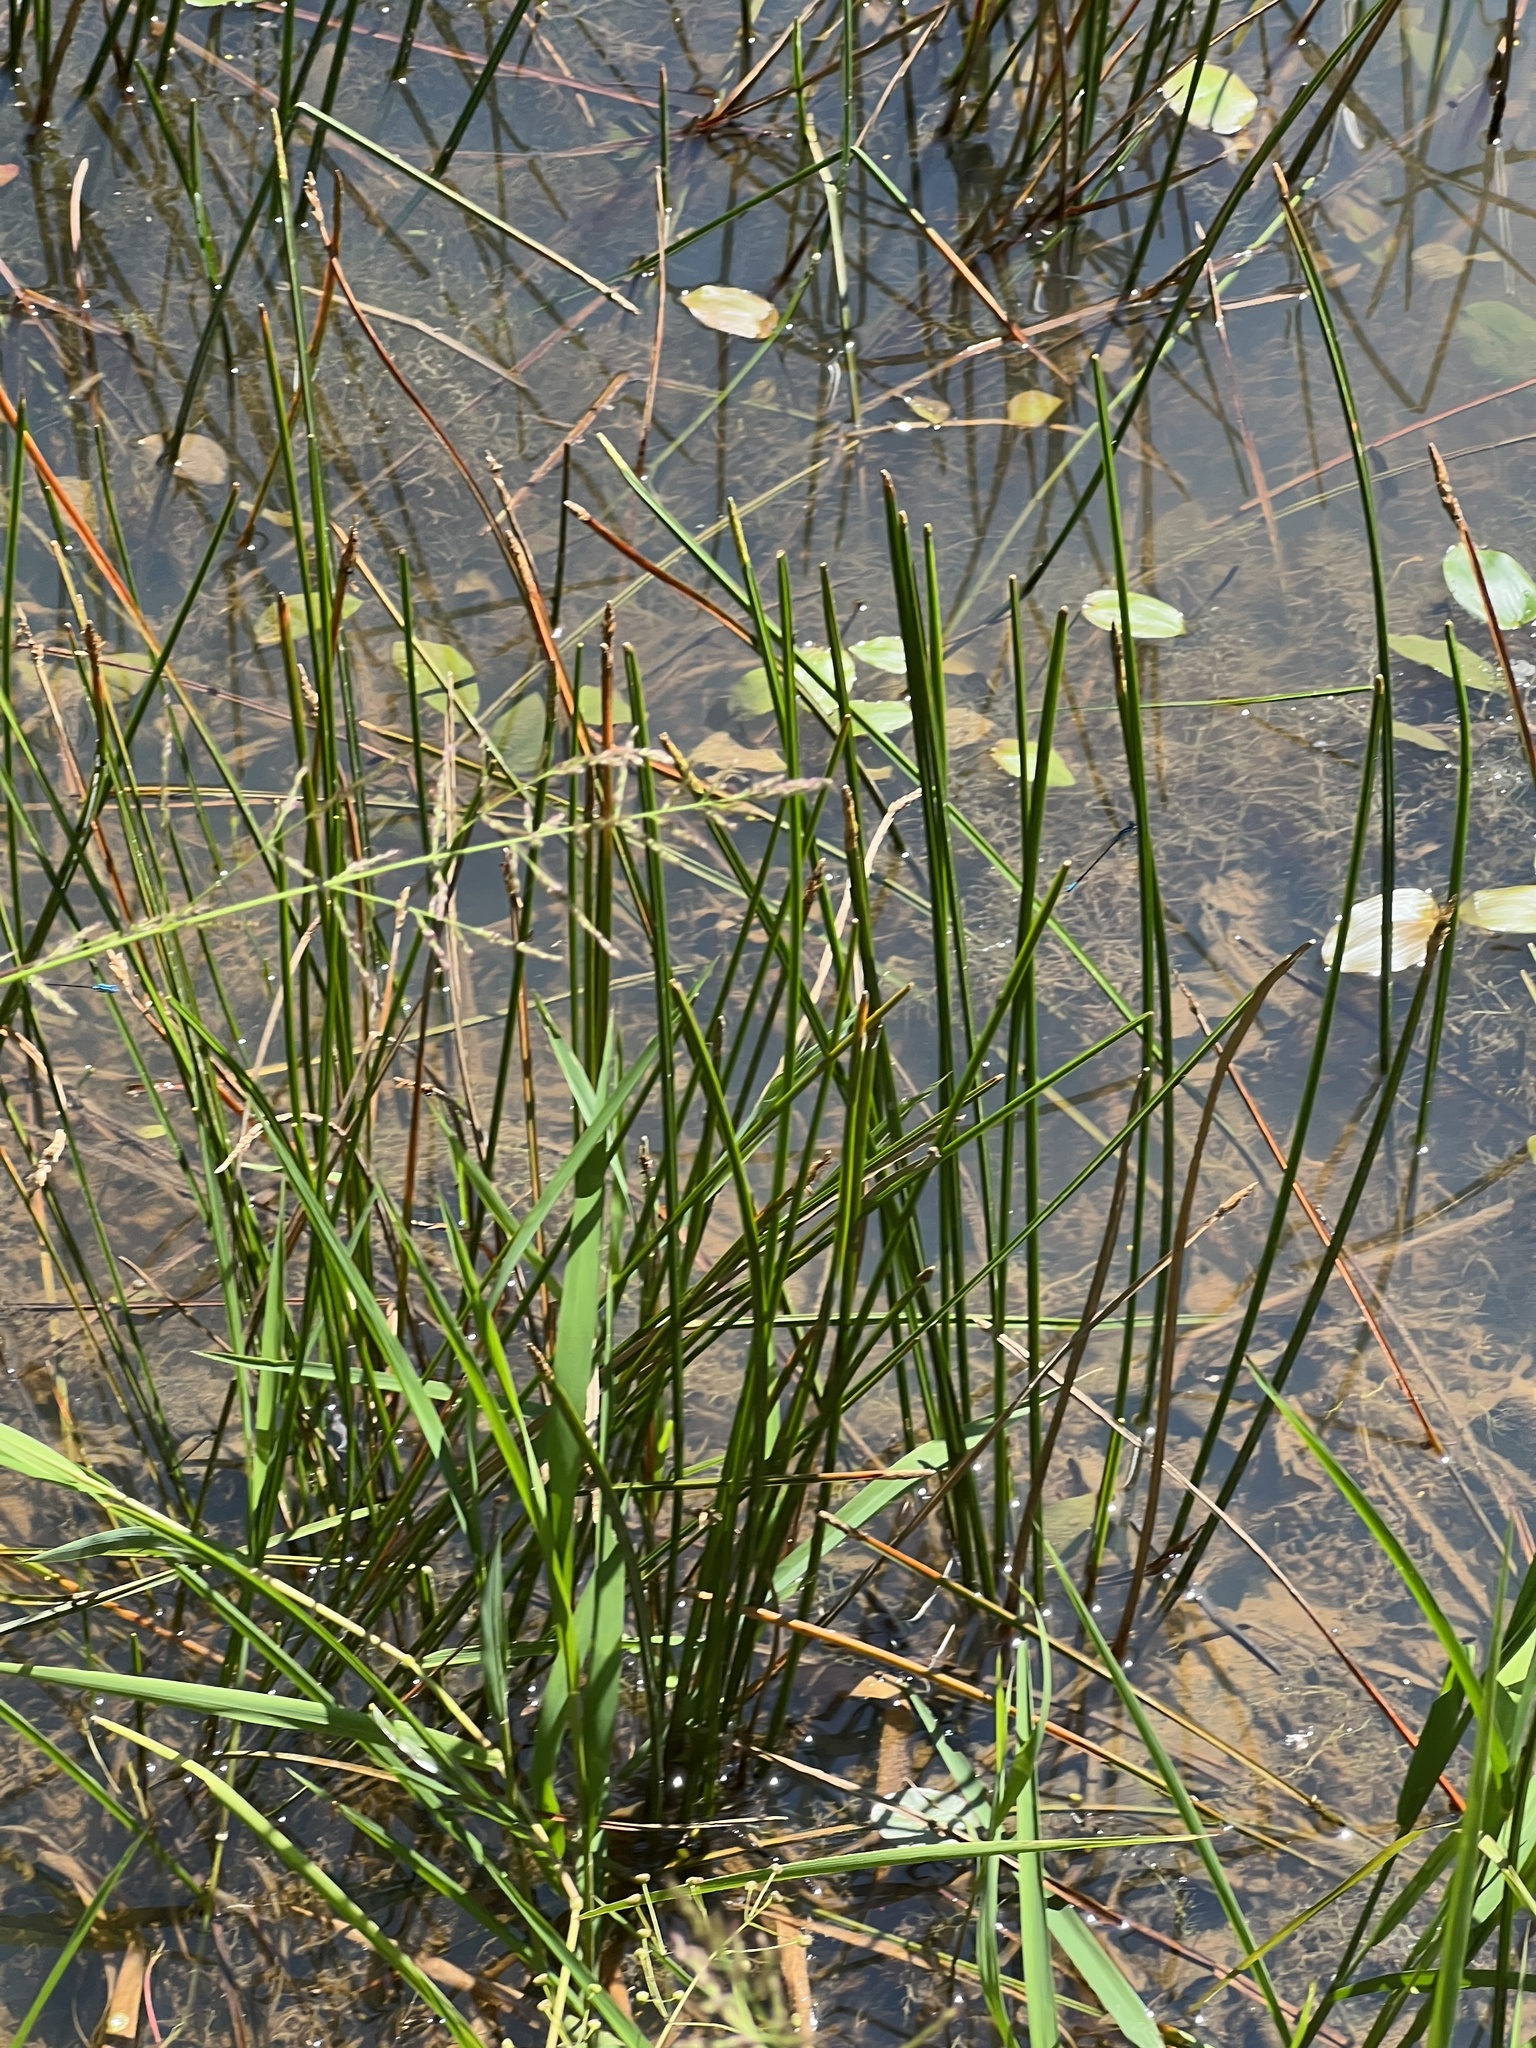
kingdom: Plantae
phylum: Tracheophyta
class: Liliopsida
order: Poales
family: Cyperaceae
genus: Eleocharis
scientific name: Eleocharis quadrangulata
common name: Square-stem spike-rush
